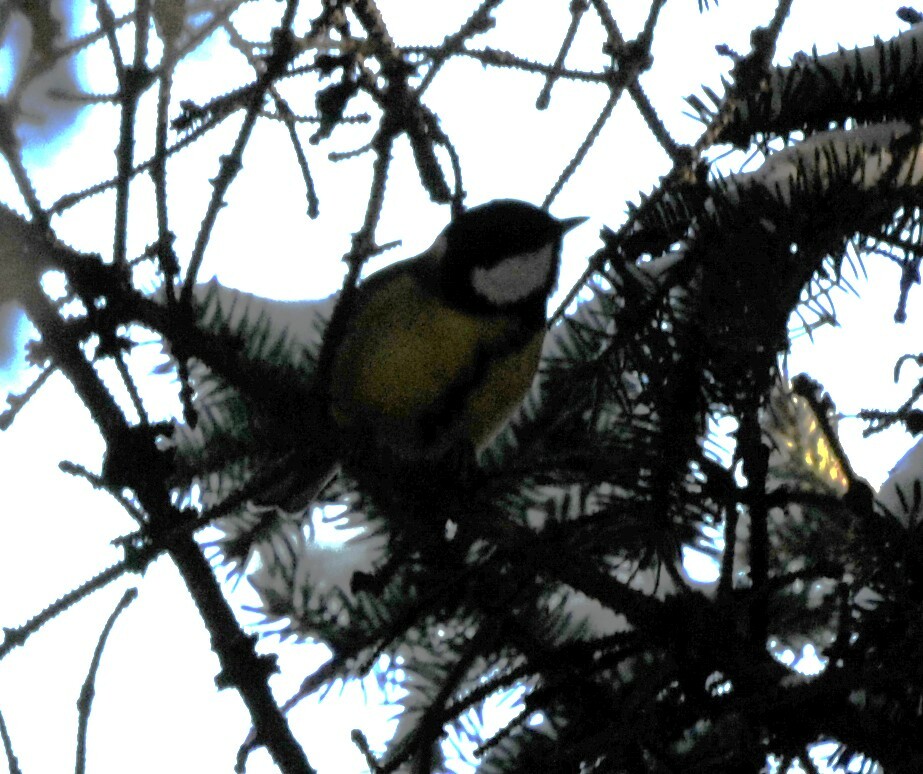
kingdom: Animalia
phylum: Chordata
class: Aves
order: Passeriformes
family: Paridae
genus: Parus
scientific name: Parus major
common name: Great tit
